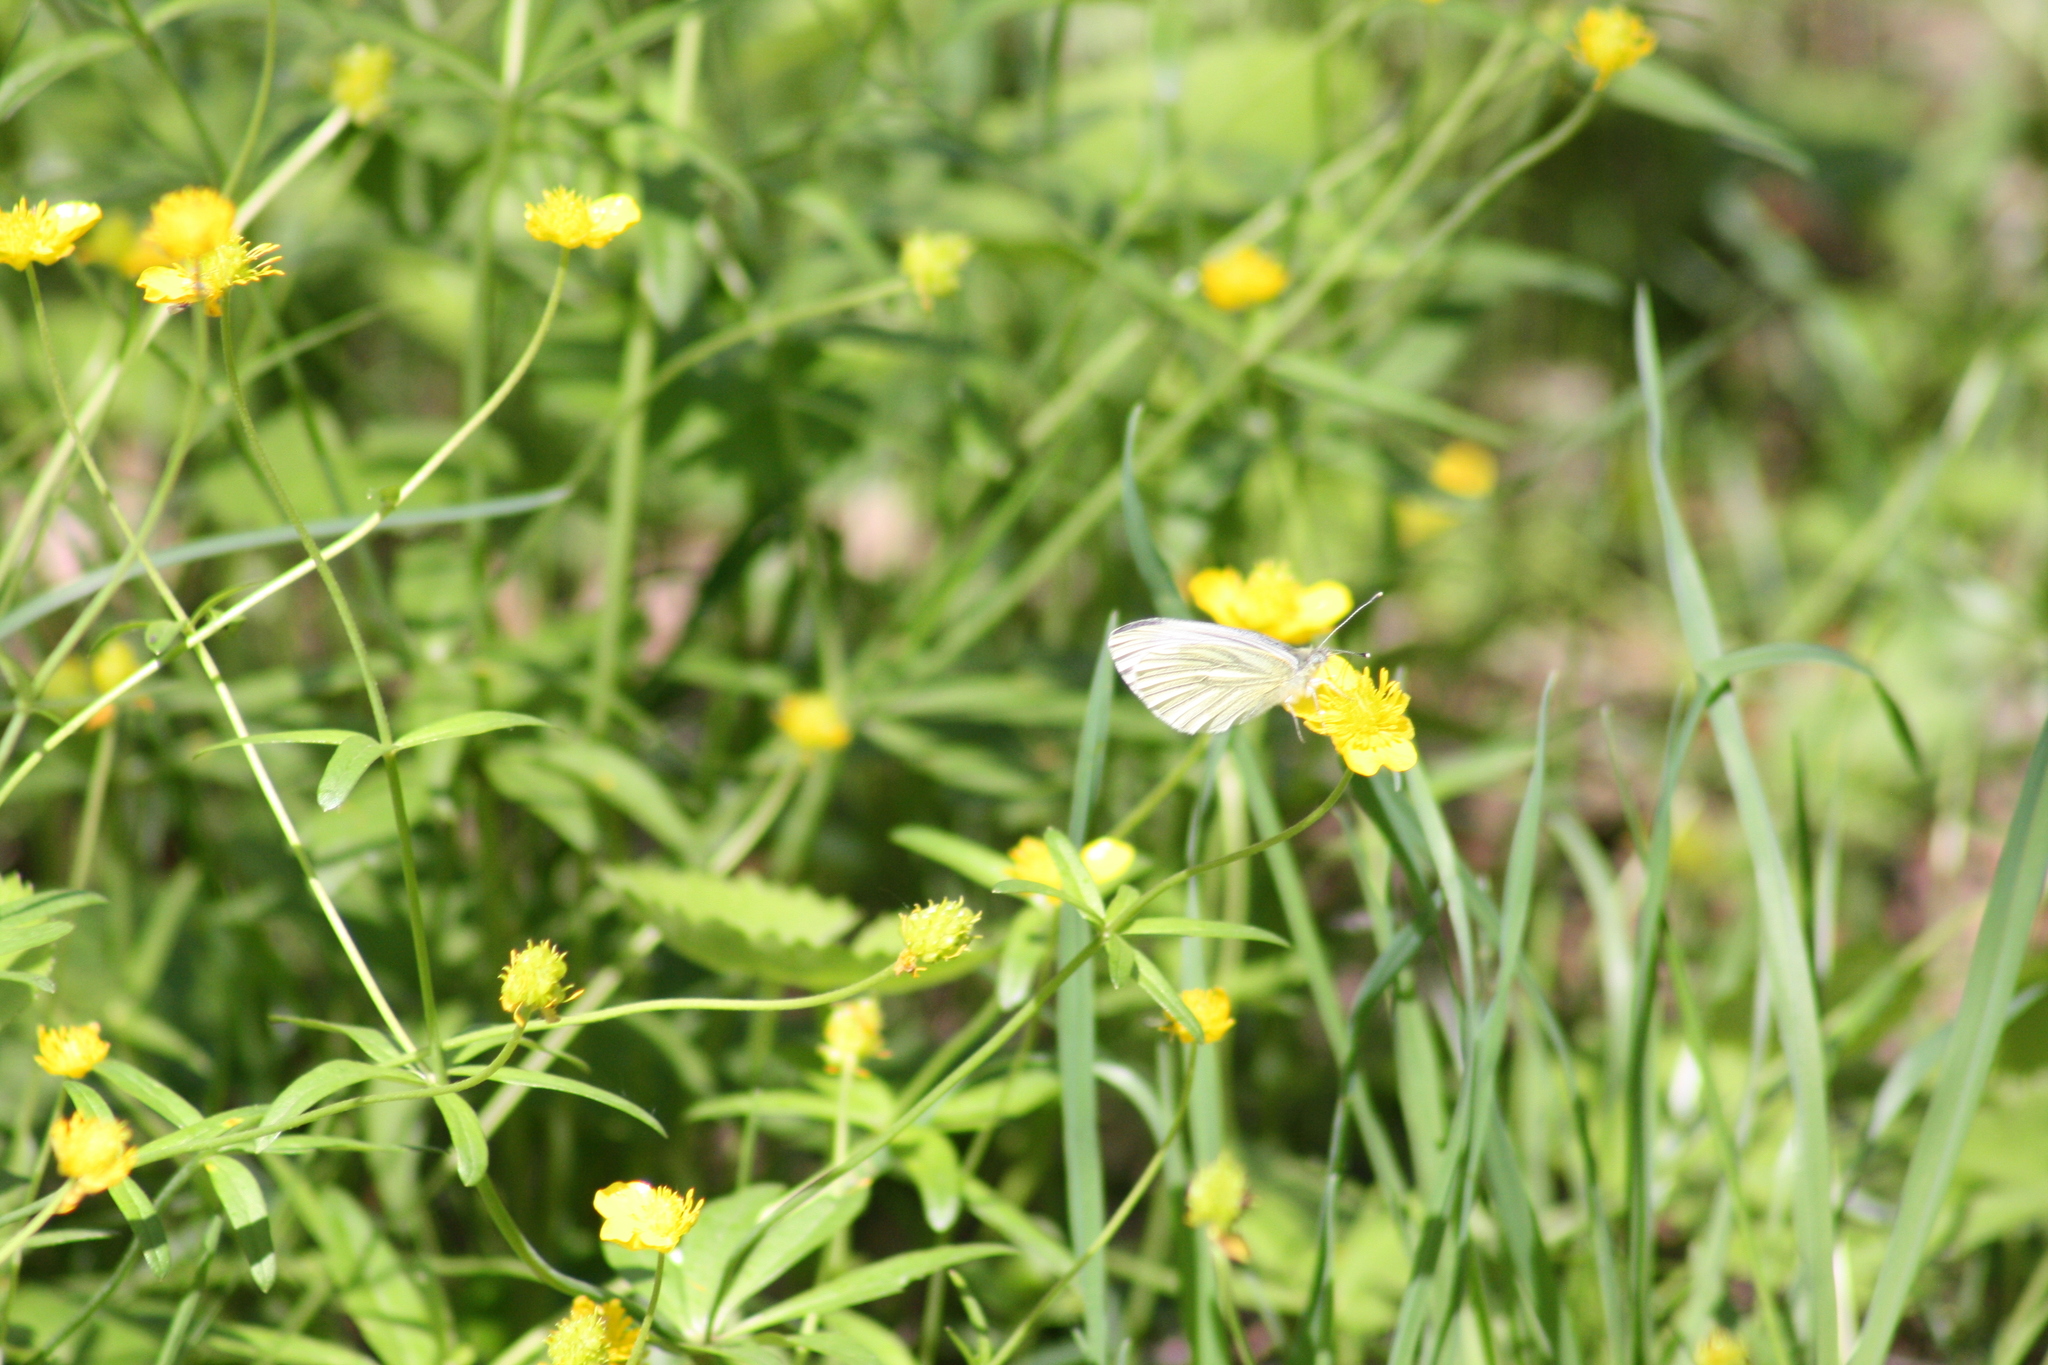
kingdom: Animalia
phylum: Arthropoda
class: Insecta
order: Lepidoptera
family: Pieridae
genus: Pieris
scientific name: Pieris napi
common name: Green-veined white
